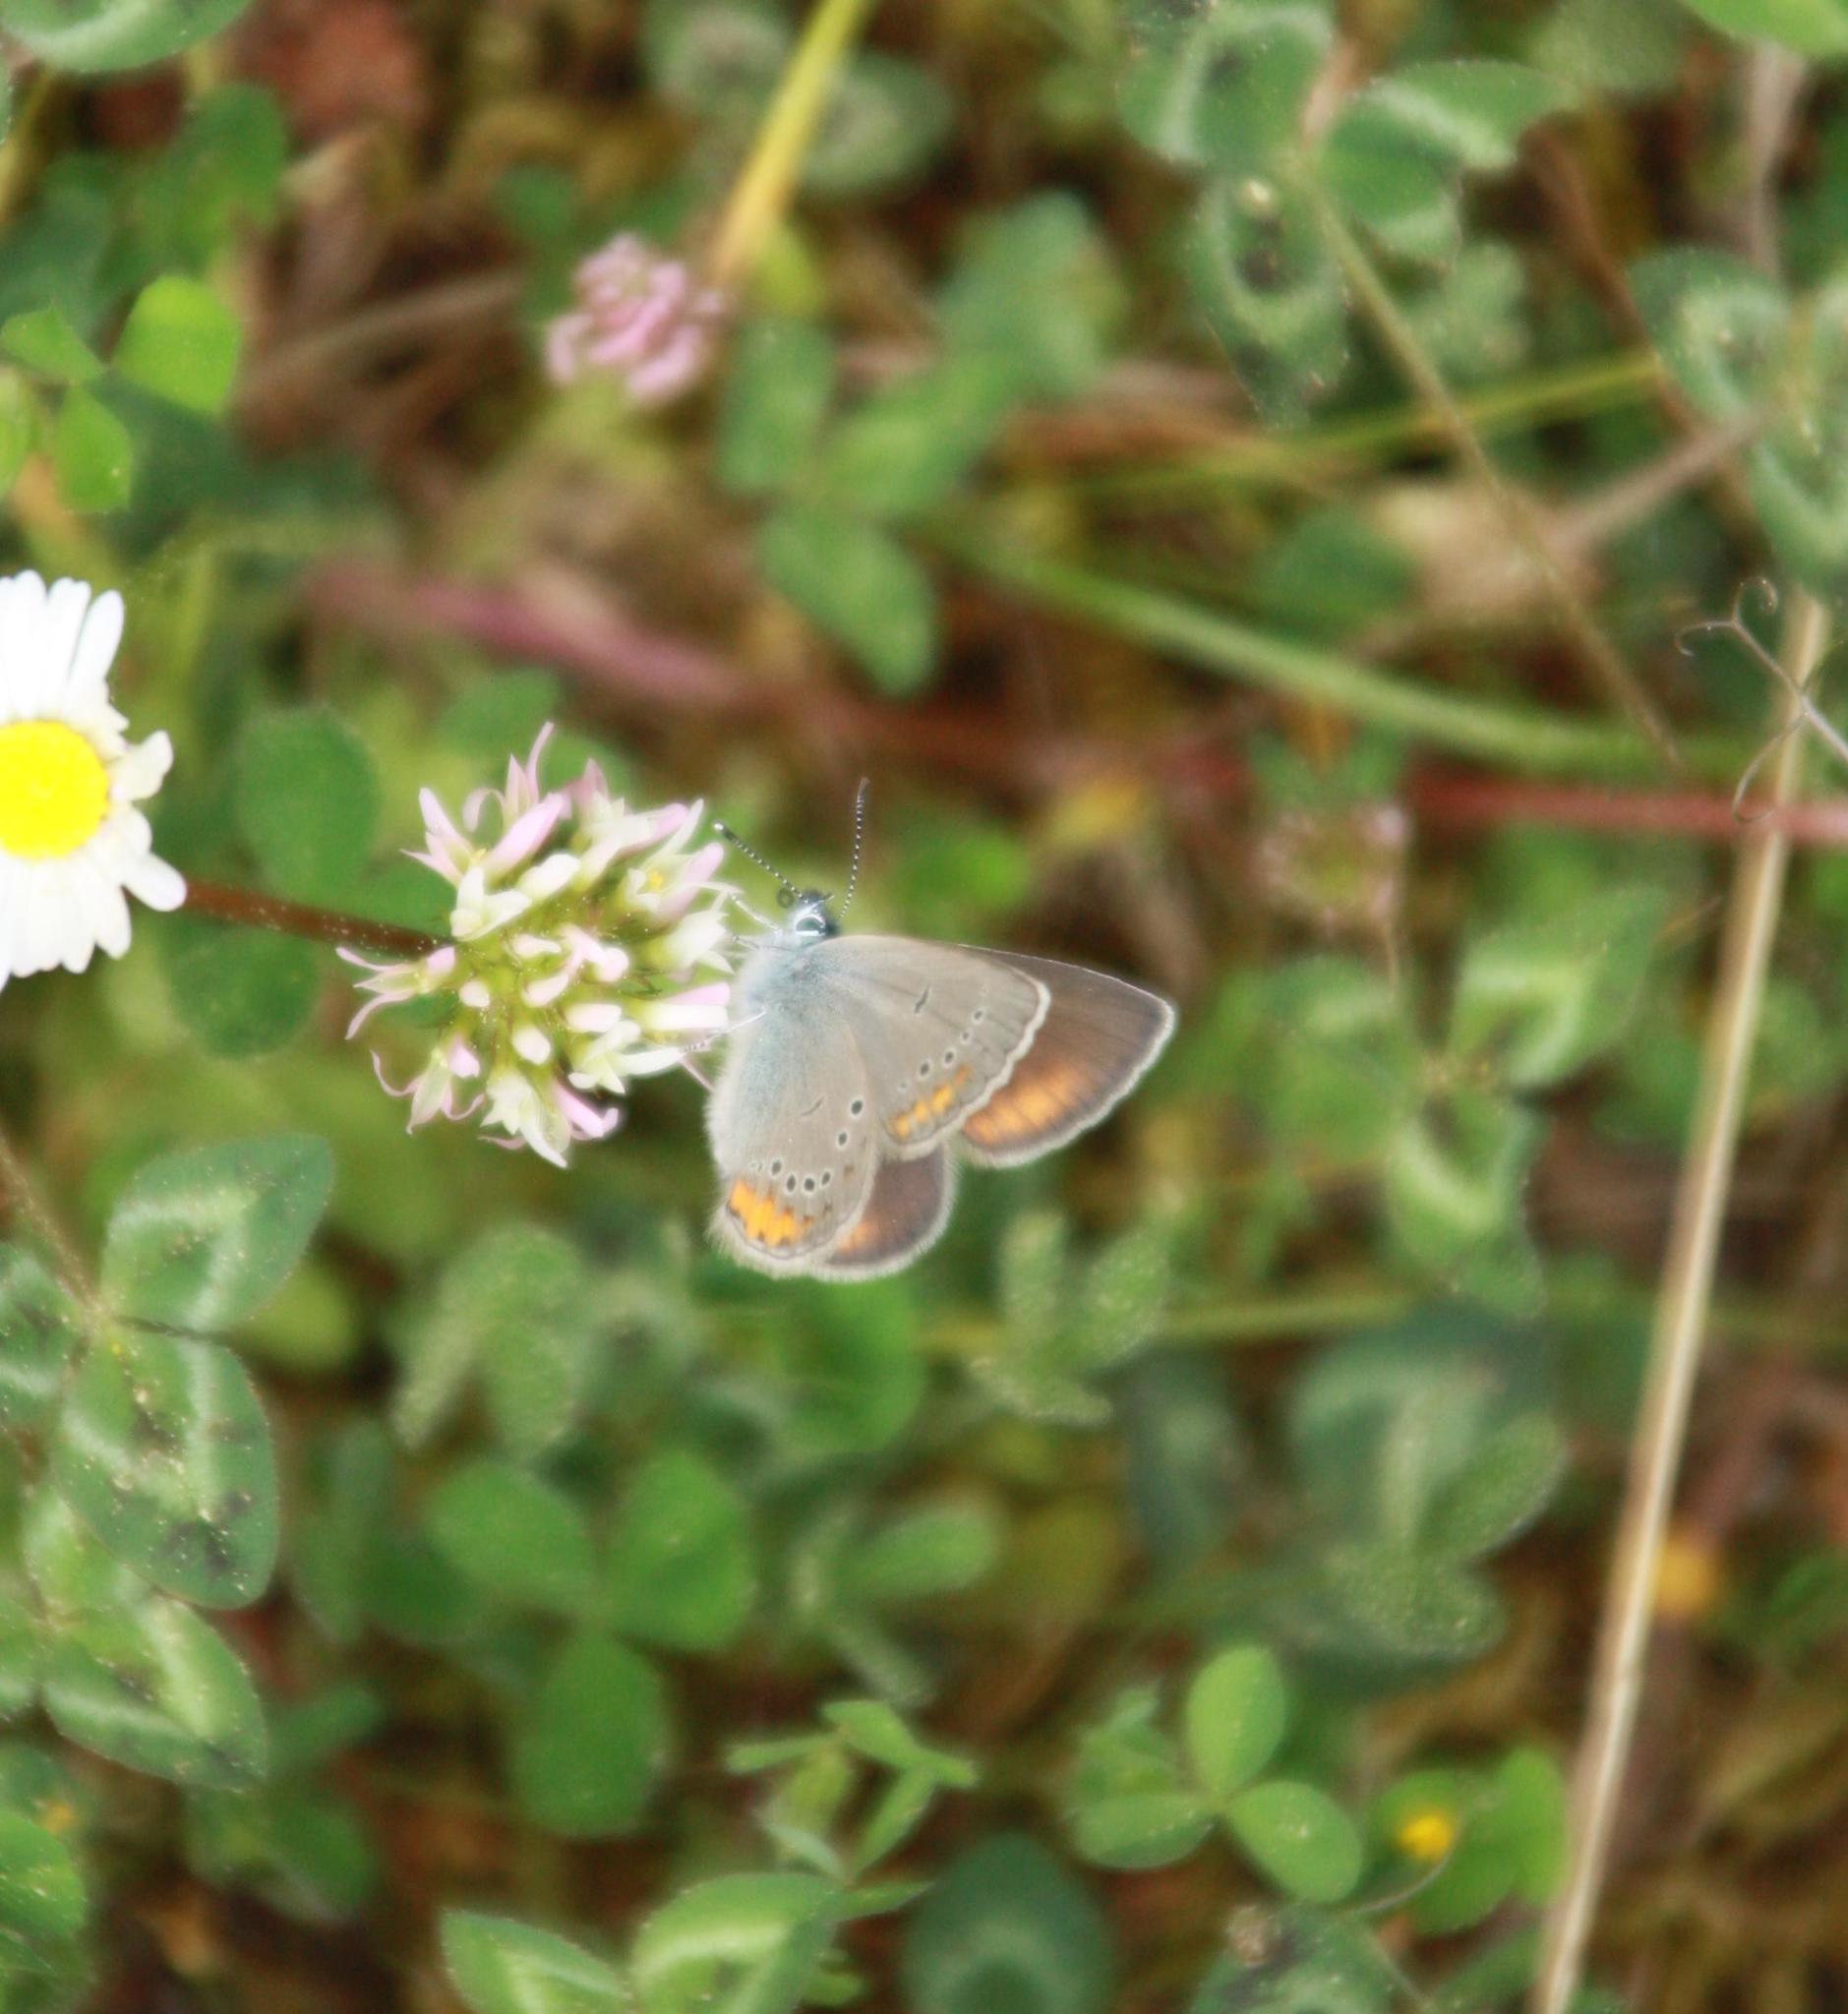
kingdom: Animalia
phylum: Arthropoda
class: Insecta
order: Lepidoptera
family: Lycaenidae
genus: Cyaniris
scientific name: Cyaniris semiargus
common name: Mazarine blue
